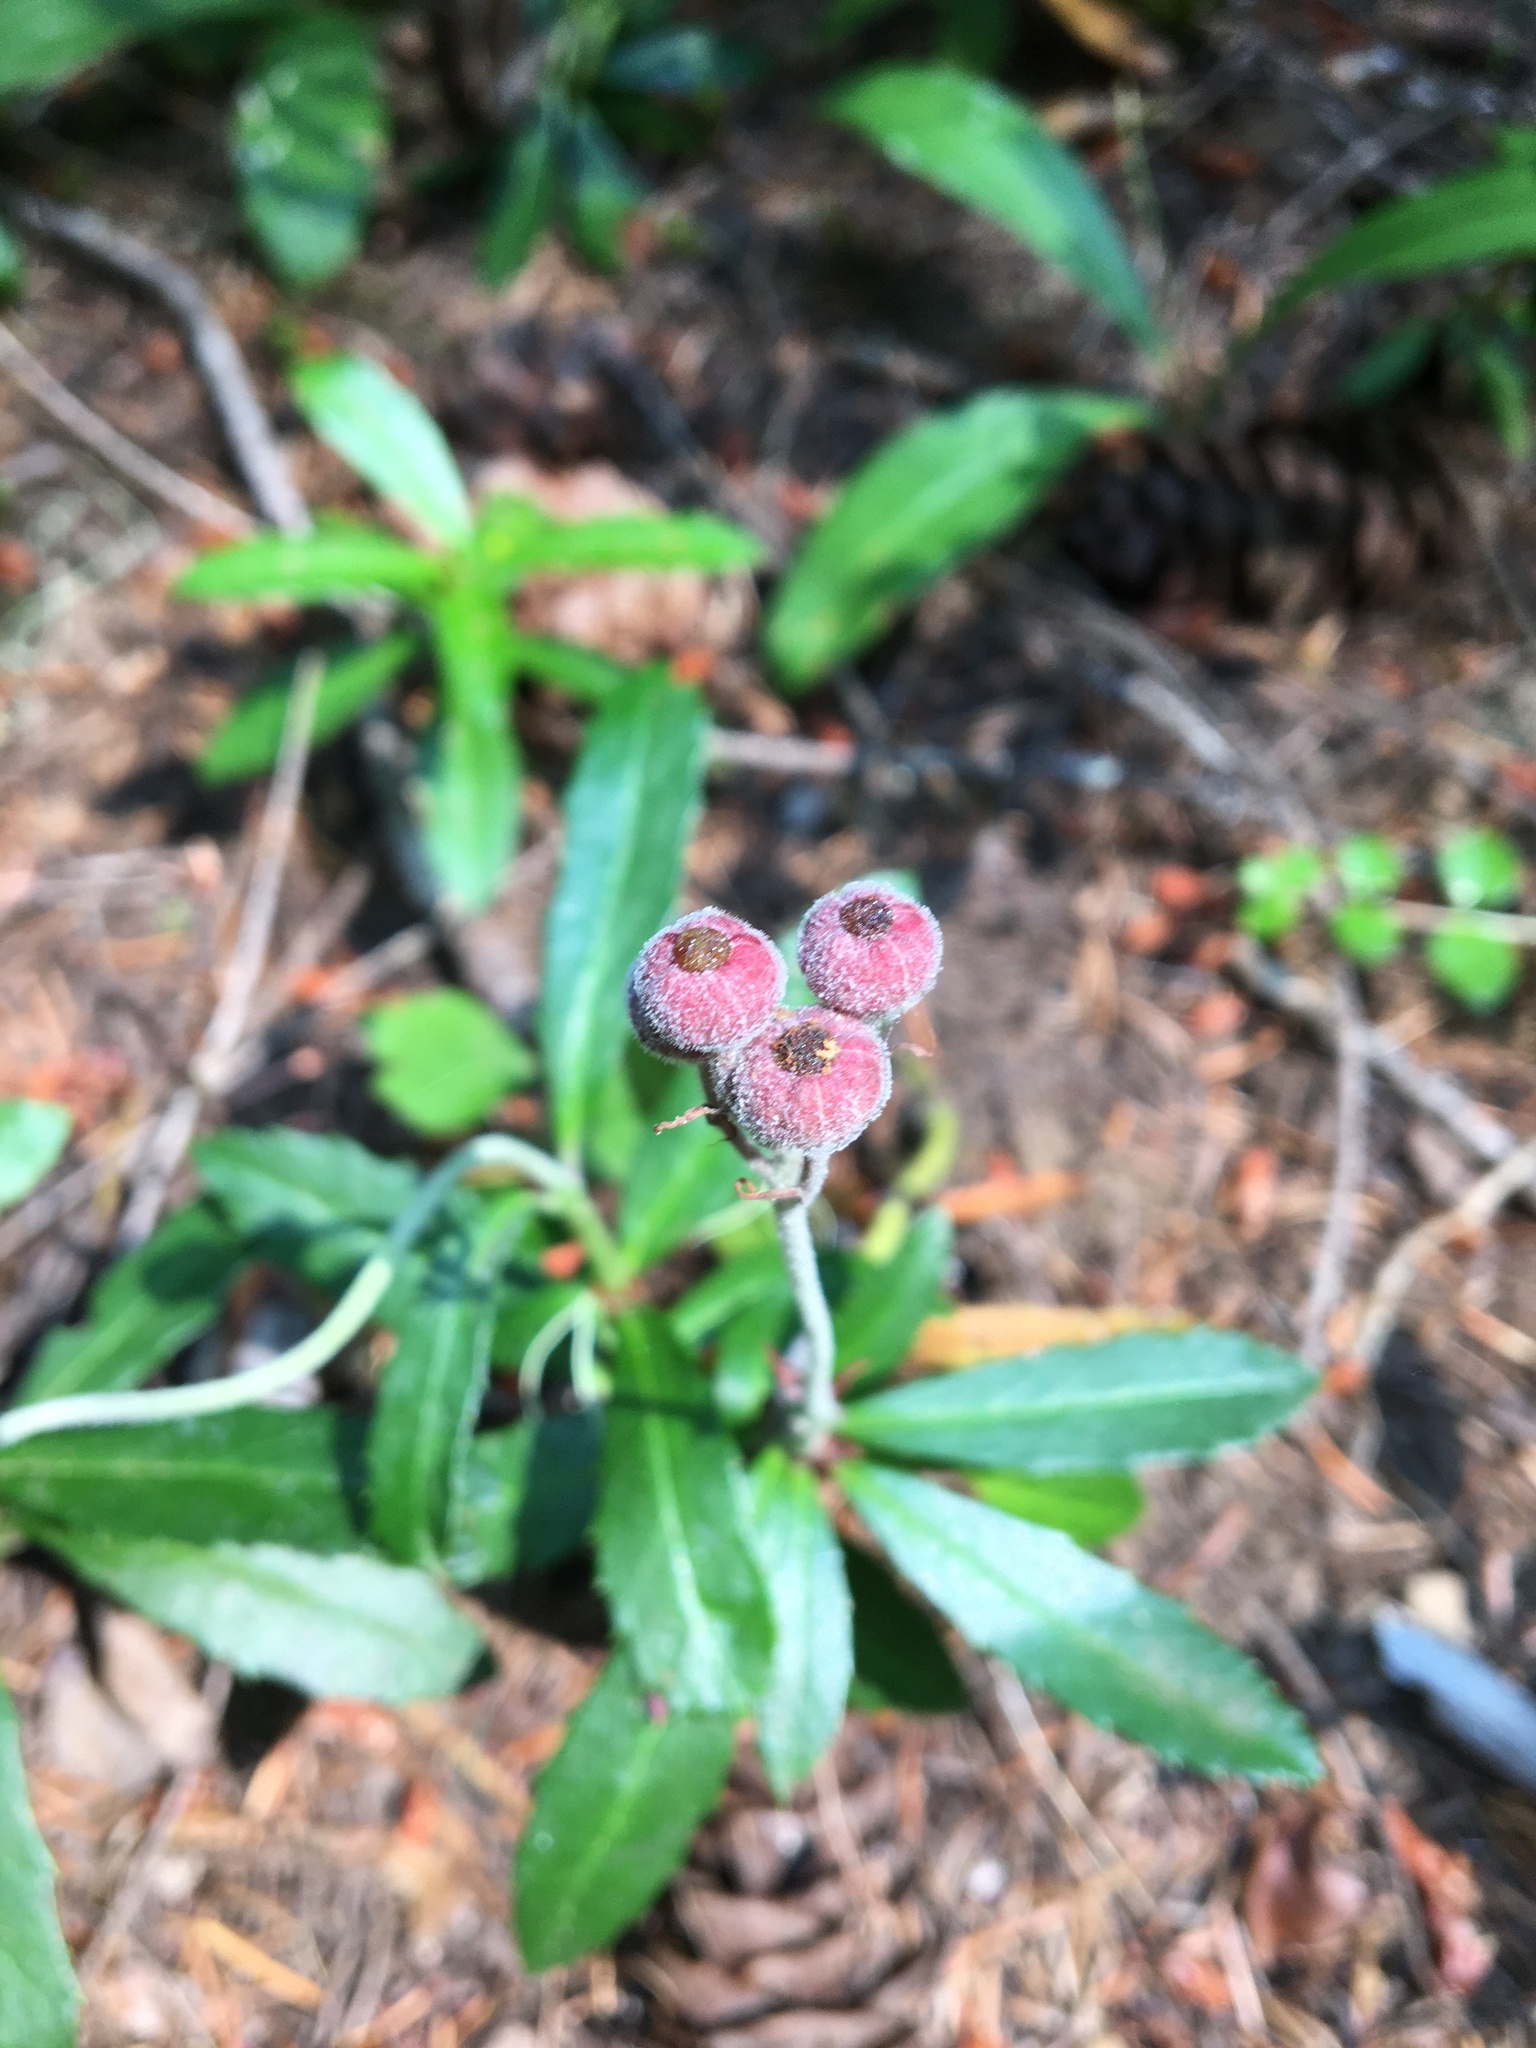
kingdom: Plantae
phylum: Tracheophyta
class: Magnoliopsida
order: Ericales
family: Ericaceae
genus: Chimaphila
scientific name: Chimaphila umbellata
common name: Pipsissewa
